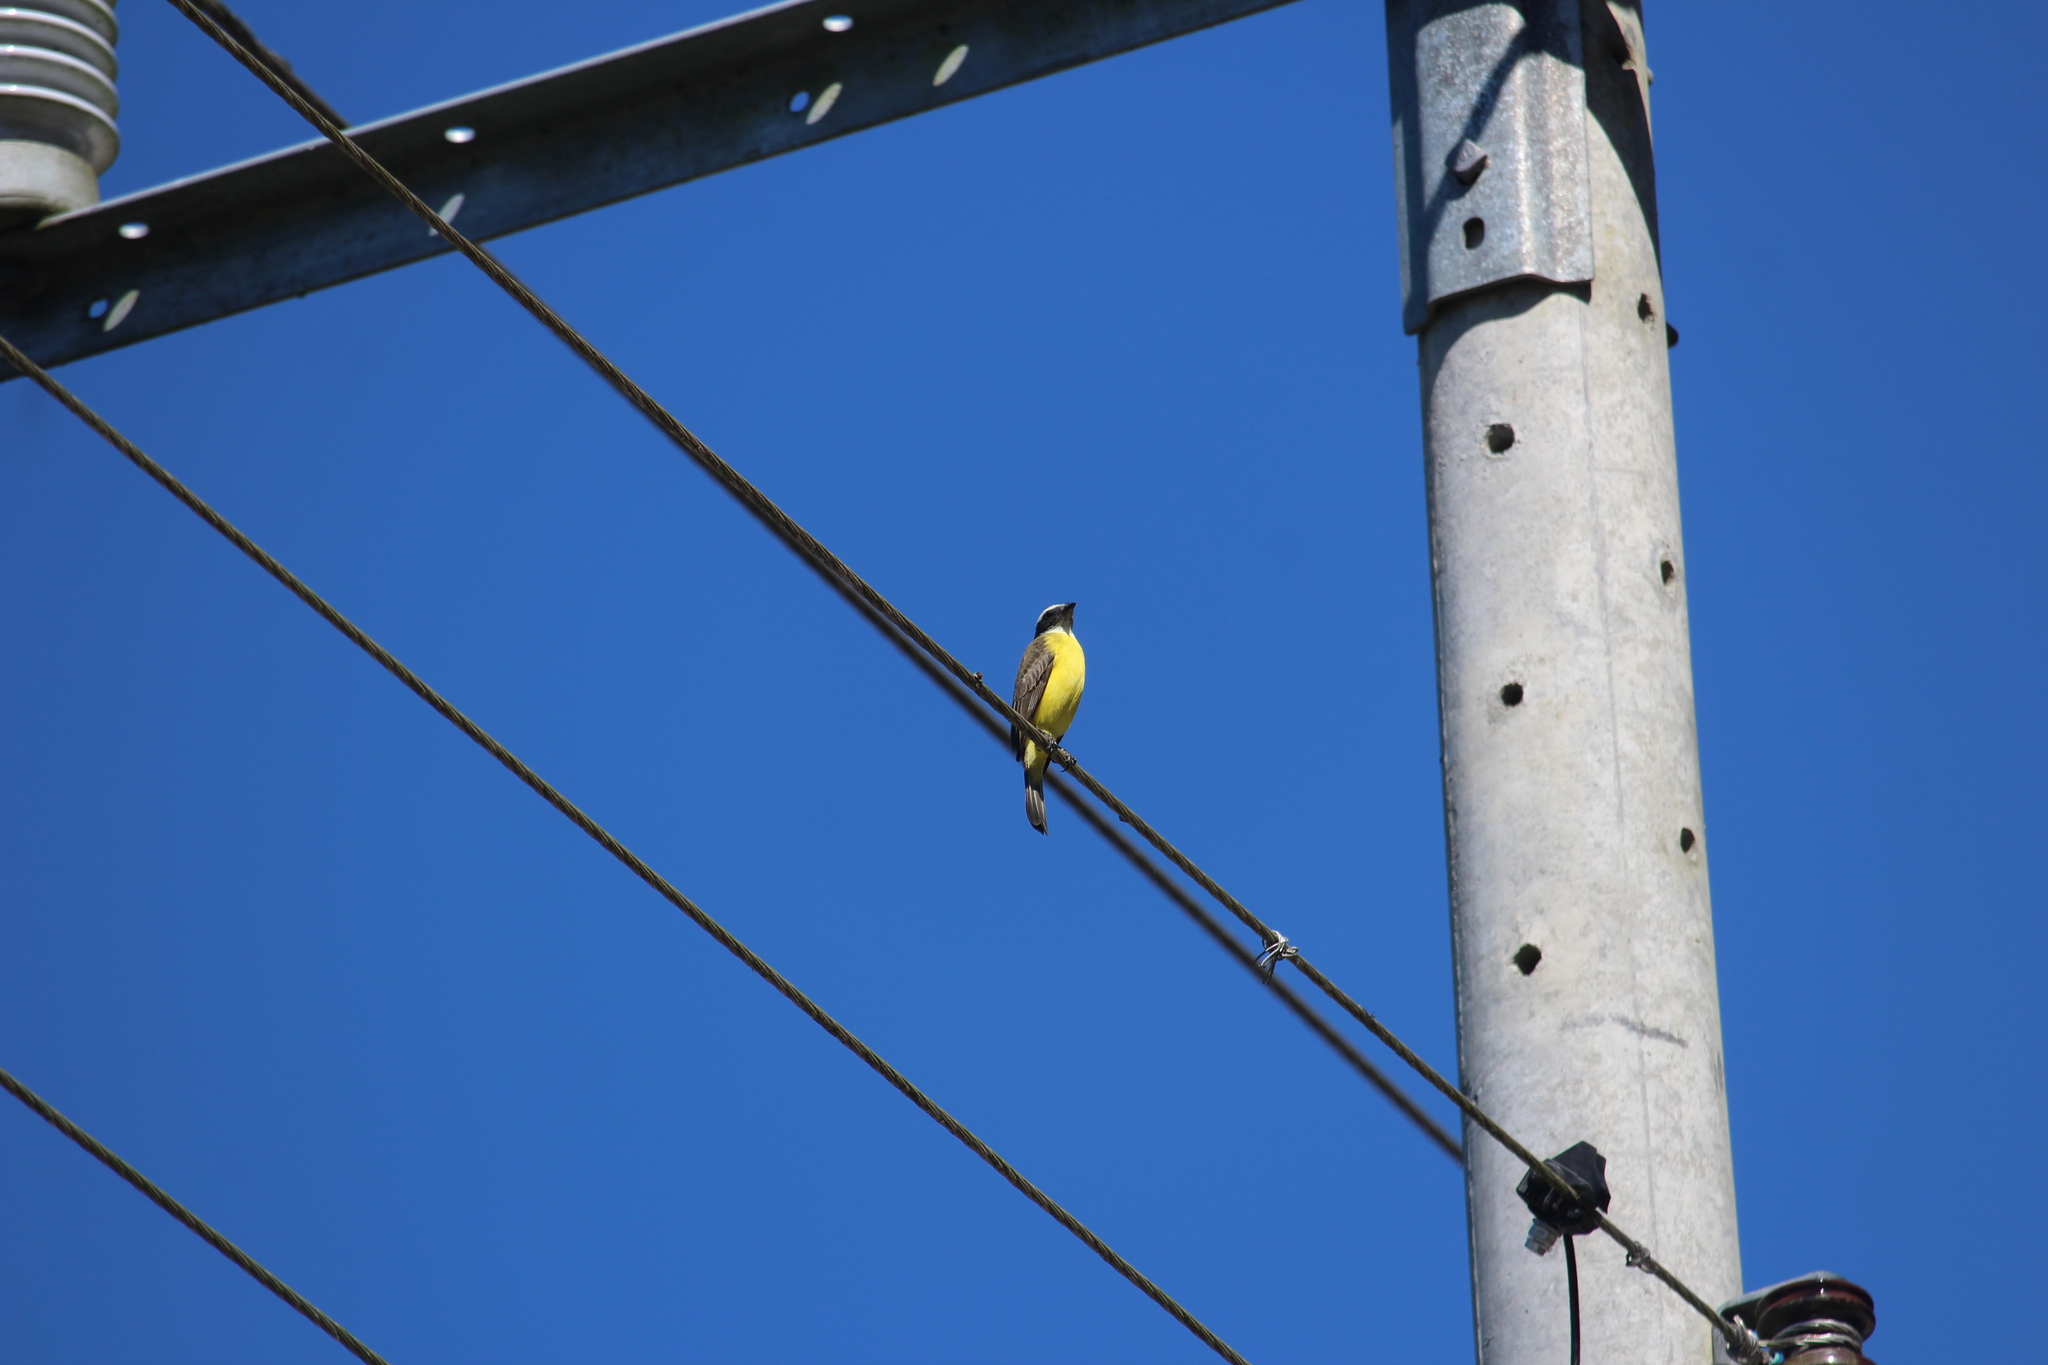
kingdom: Animalia
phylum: Chordata
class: Aves
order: Passeriformes
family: Tyrannidae
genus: Myiozetetes
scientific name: Myiozetetes similis
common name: Social flycatcher
